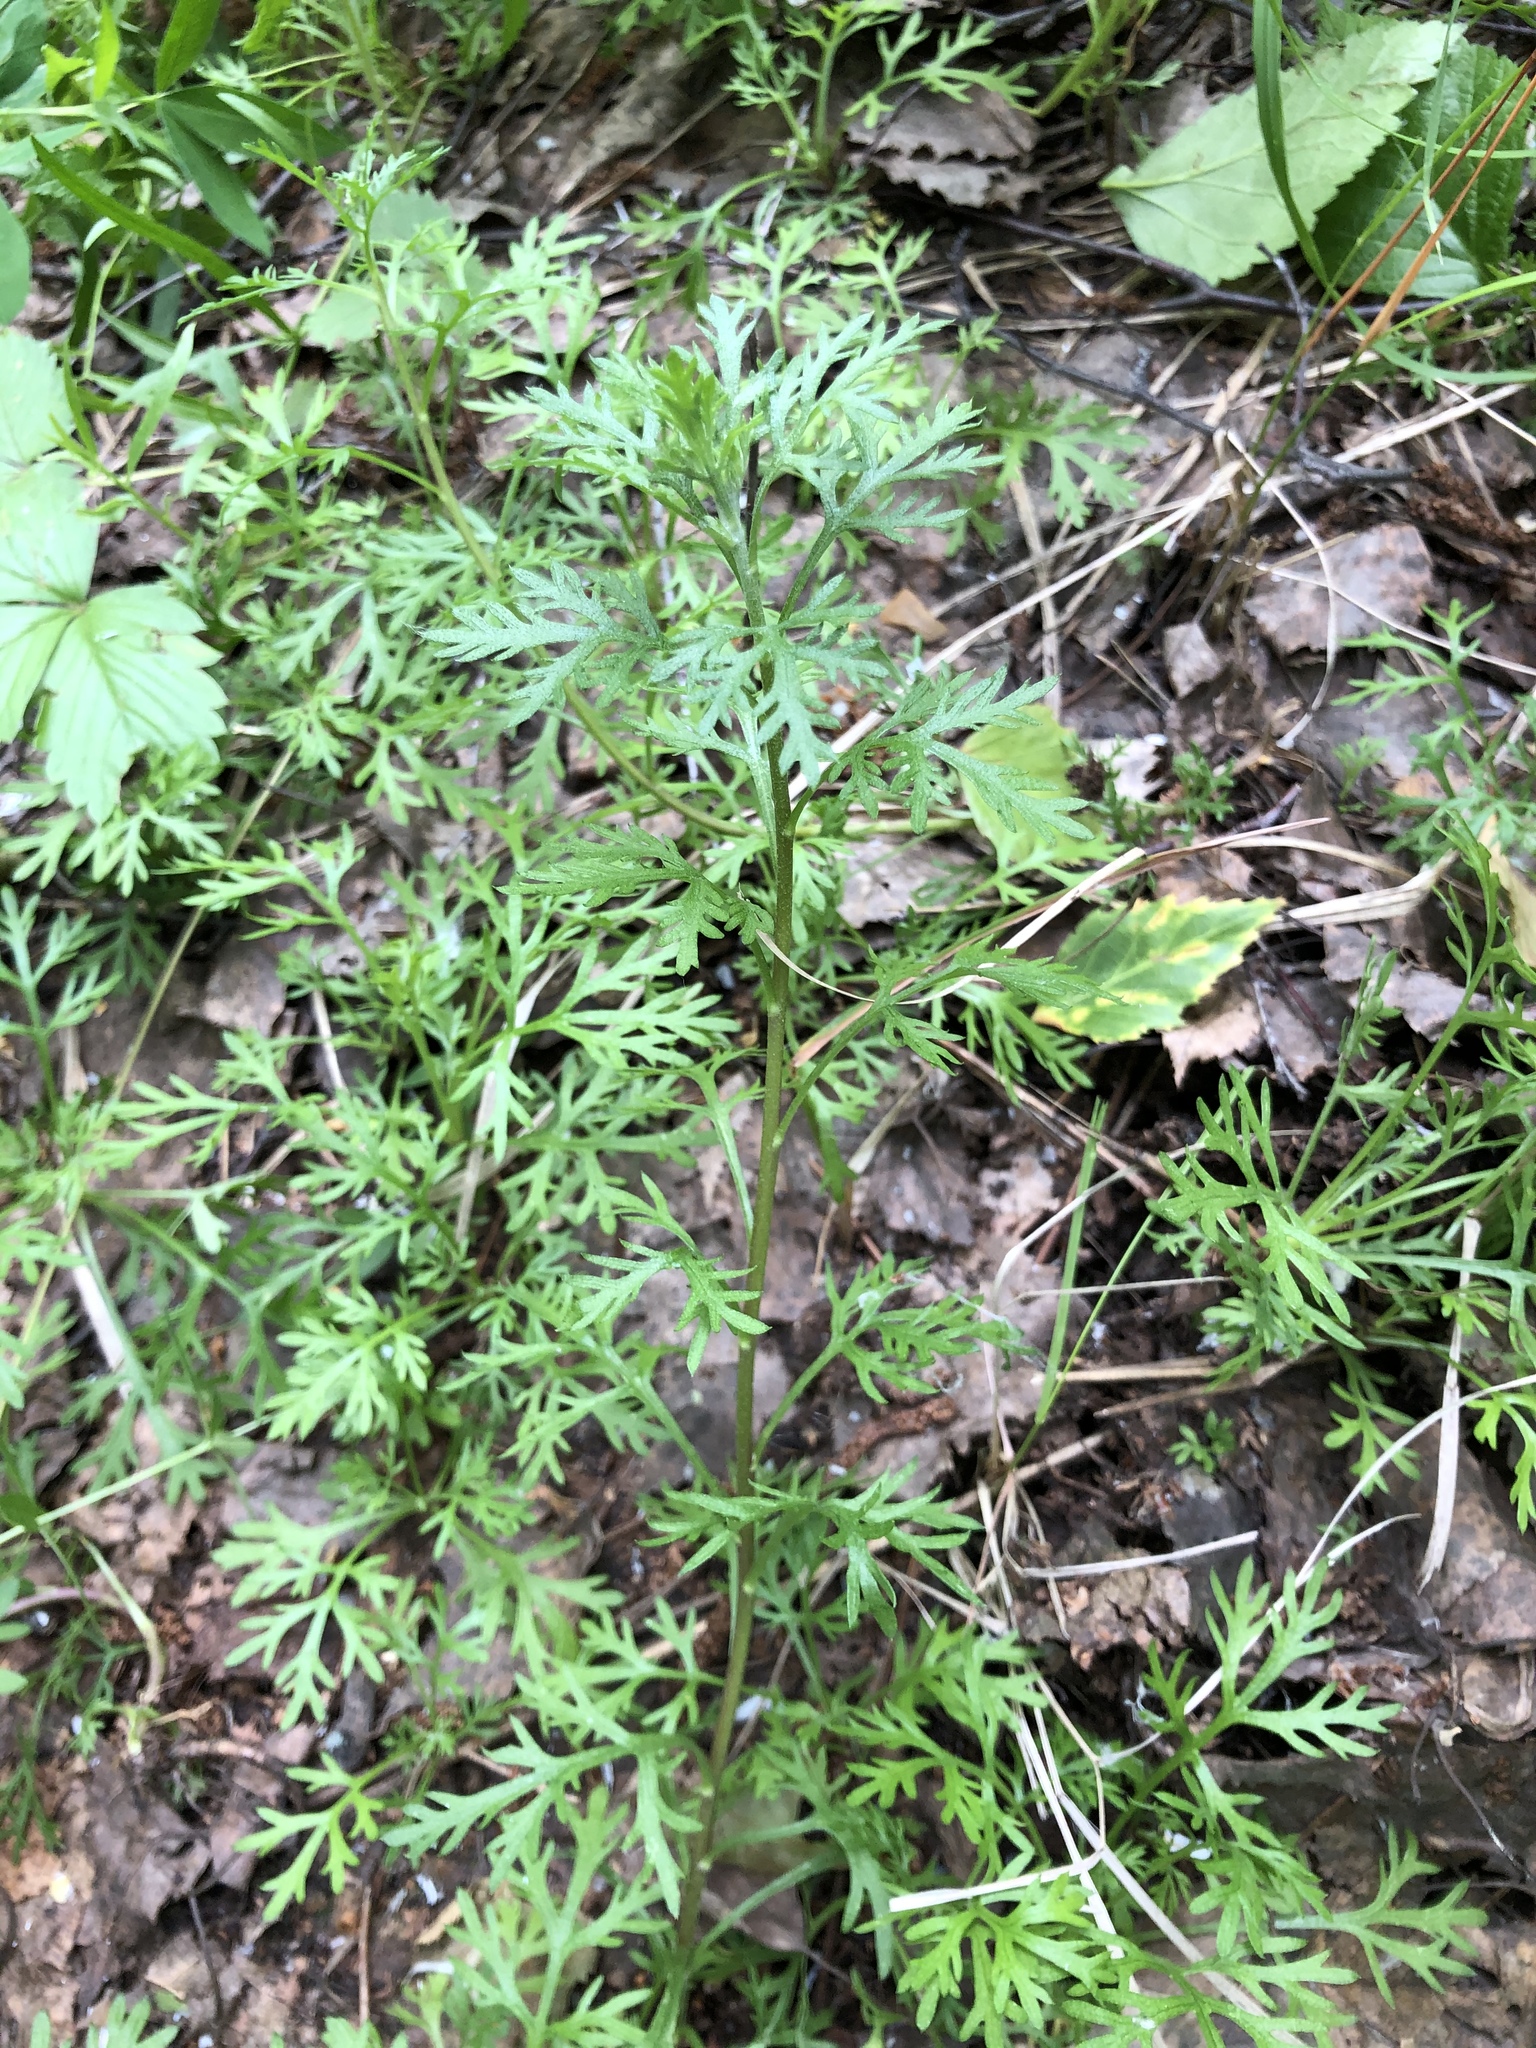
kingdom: Plantae
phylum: Tracheophyta
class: Magnoliopsida
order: Asterales
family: Asteraceae
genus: Chrysanthemum
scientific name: Chrysanthemum zawadzkii
